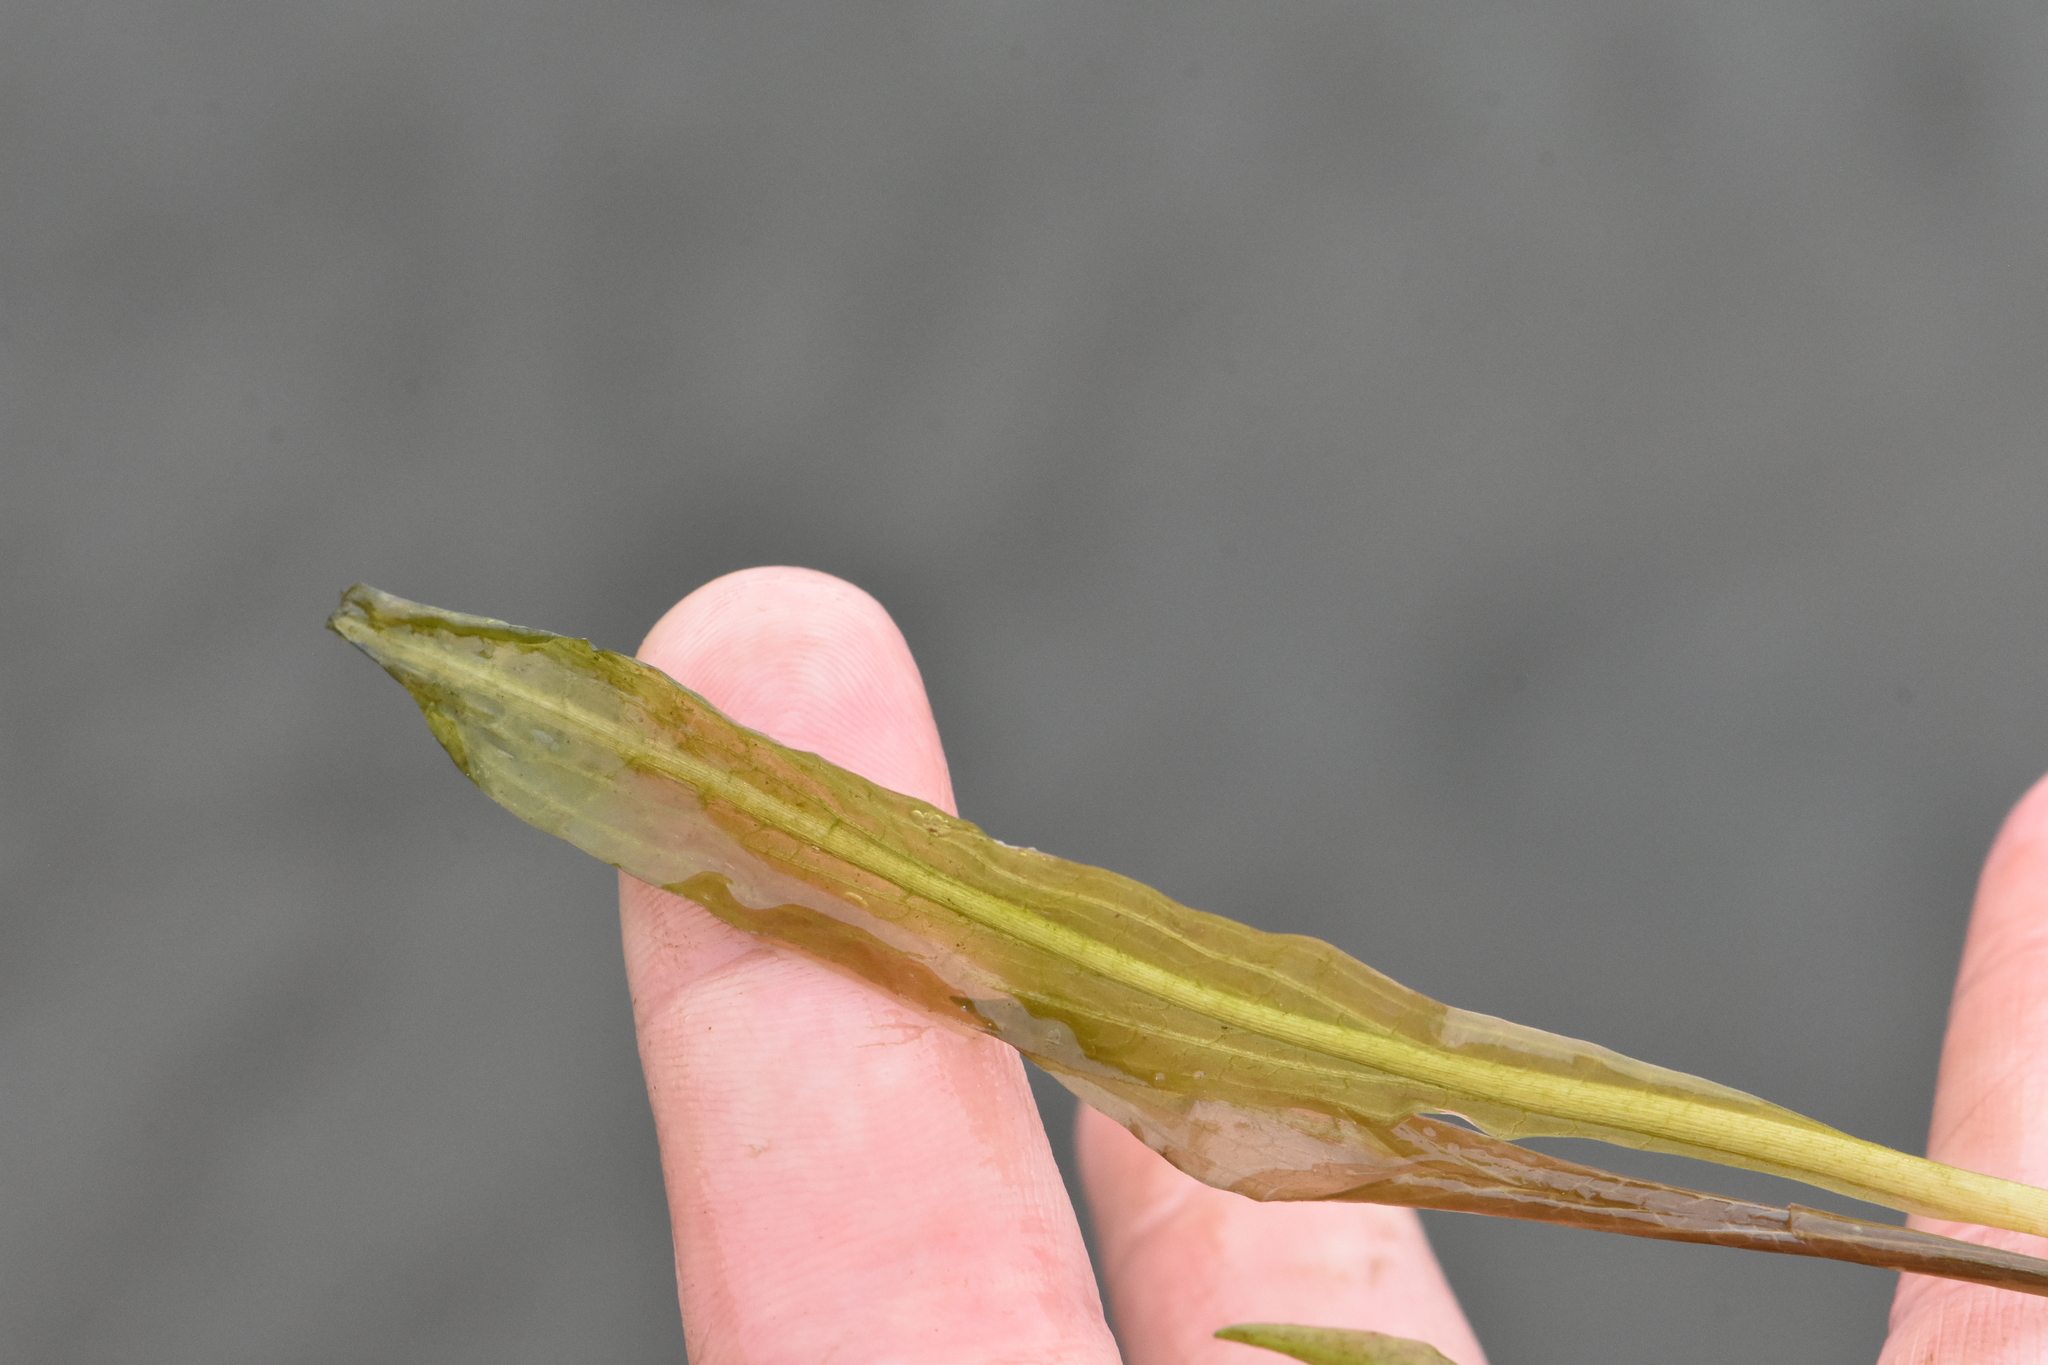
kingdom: Plantae
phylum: Tracheophyta
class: Liliopsida
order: Alismatales
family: Potamogetonaceae
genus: Potamogeton
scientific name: Potamogeton nodosus
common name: Loddon pondweed
